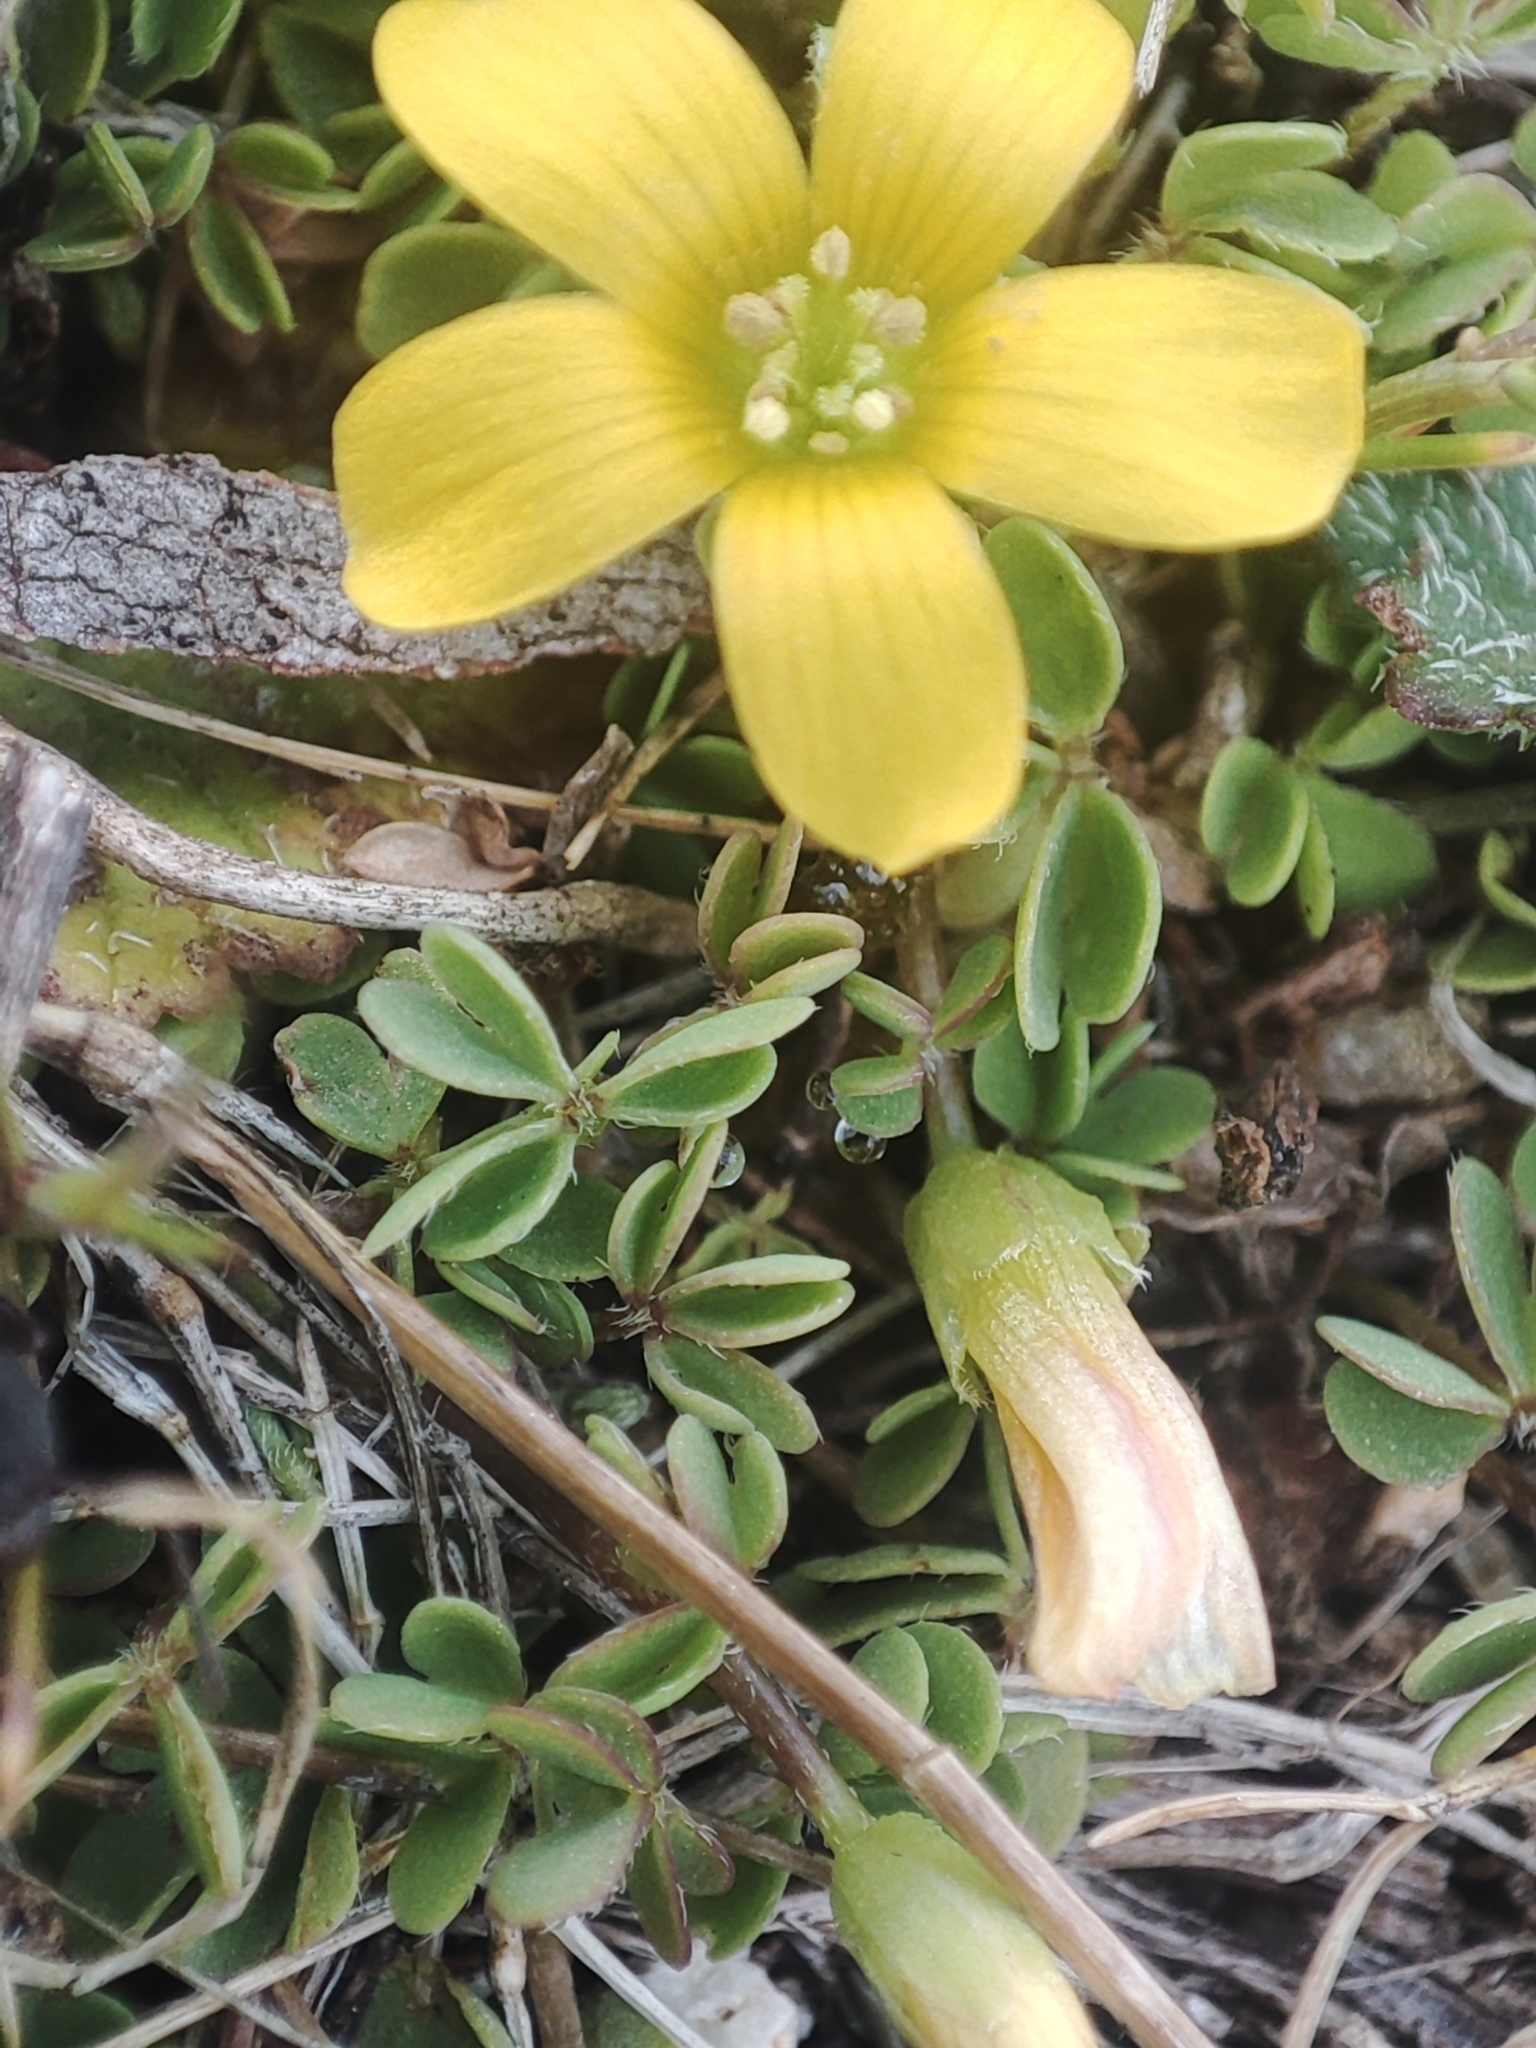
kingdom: Plantae
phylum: Tracheophyta
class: Magnoliopsida
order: Oxalidales
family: Oxalidaceae
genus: Oxalis
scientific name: Oxalis
